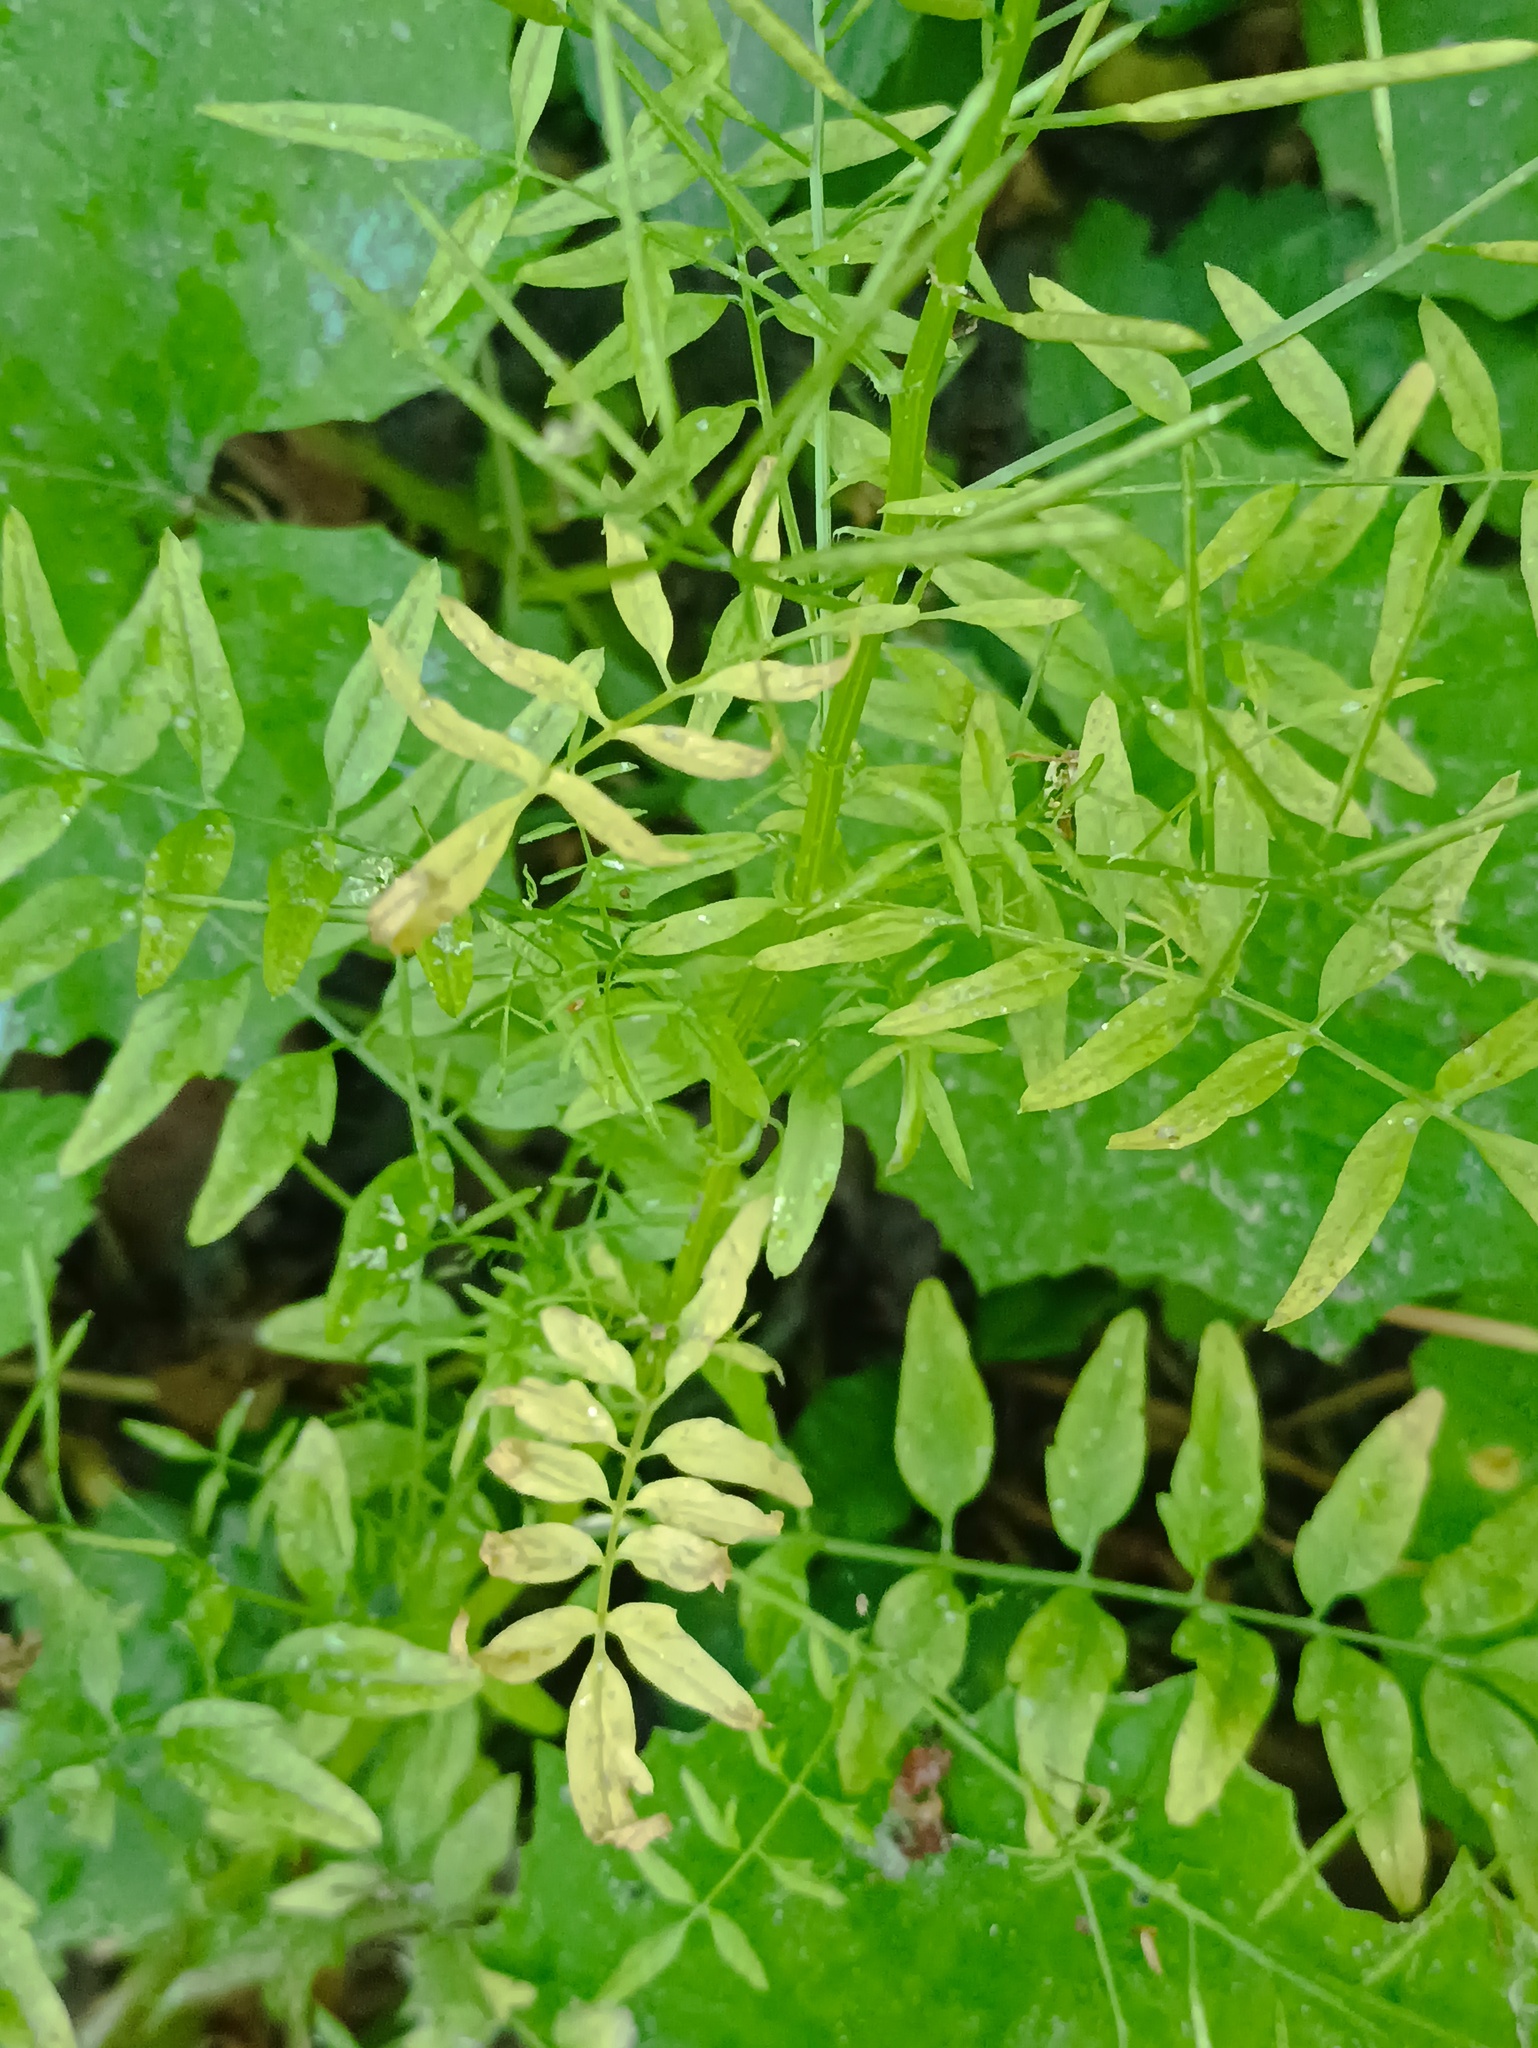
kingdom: Plantae
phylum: Tracheophyta
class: Magnoliopsida
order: Brassicales
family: Brassicaceae
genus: Cardamine
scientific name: Cardamine impatiens
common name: Narrow-leaved bitter-cress
